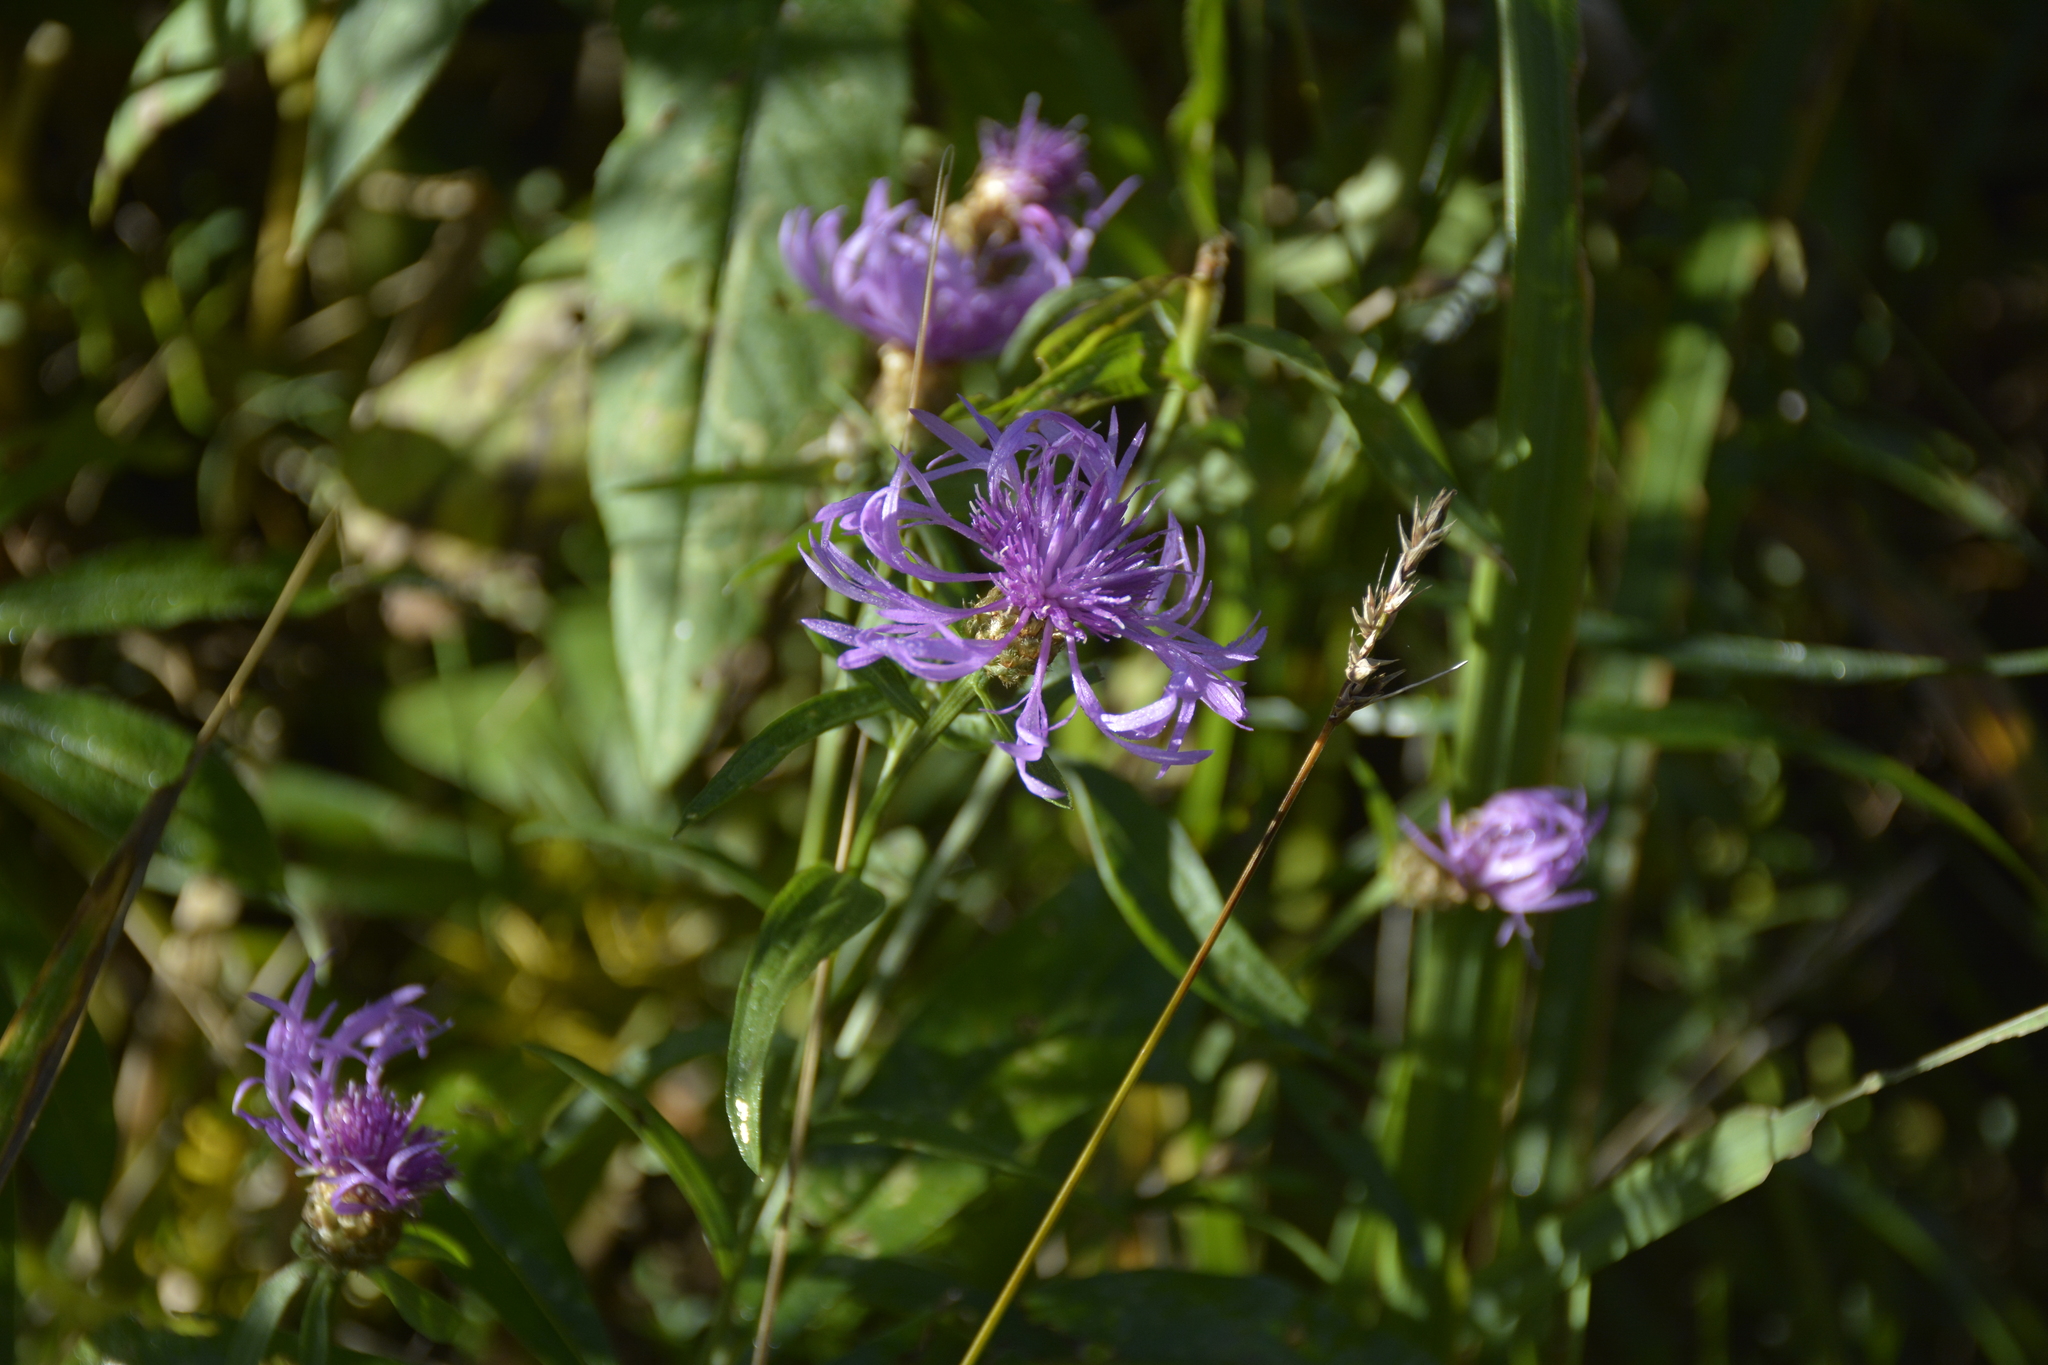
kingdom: Plantae
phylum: Tracheophyta
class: Magnoliopsida
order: Asterales
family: Asteraceae
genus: Centaurea
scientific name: Centaurea jacea
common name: Brown knapweed
